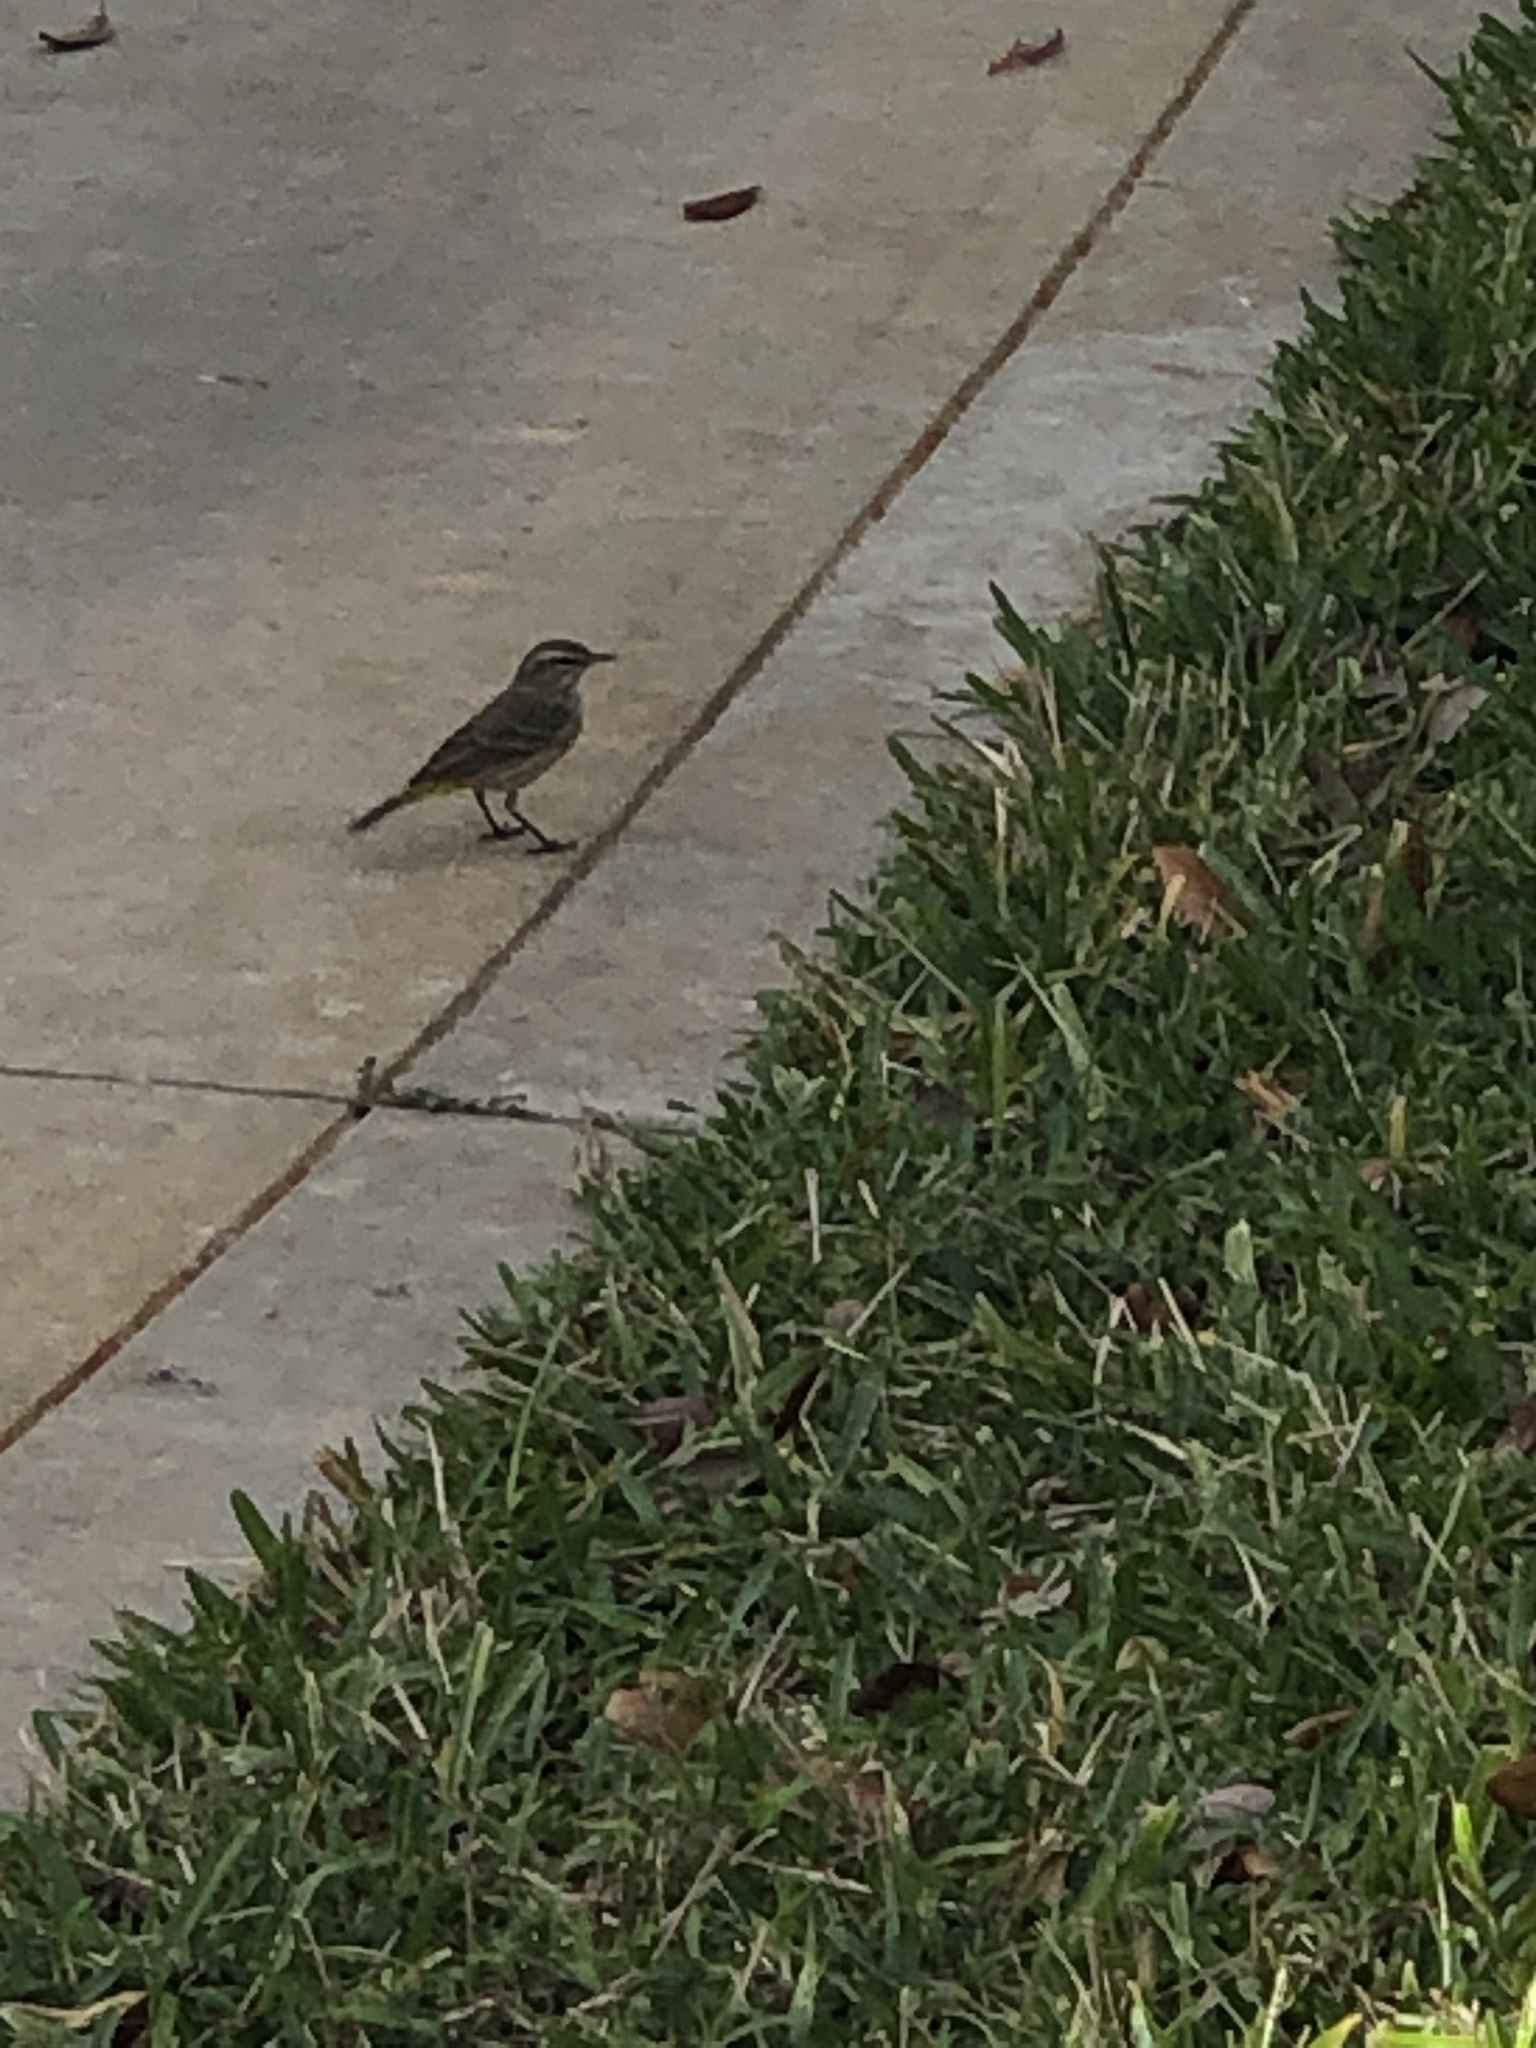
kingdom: Animalia
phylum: Chordata
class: Aves
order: Passeriformes
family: Parulidae
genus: Setophaga
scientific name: Setophaga palmarum
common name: Palm warbler
